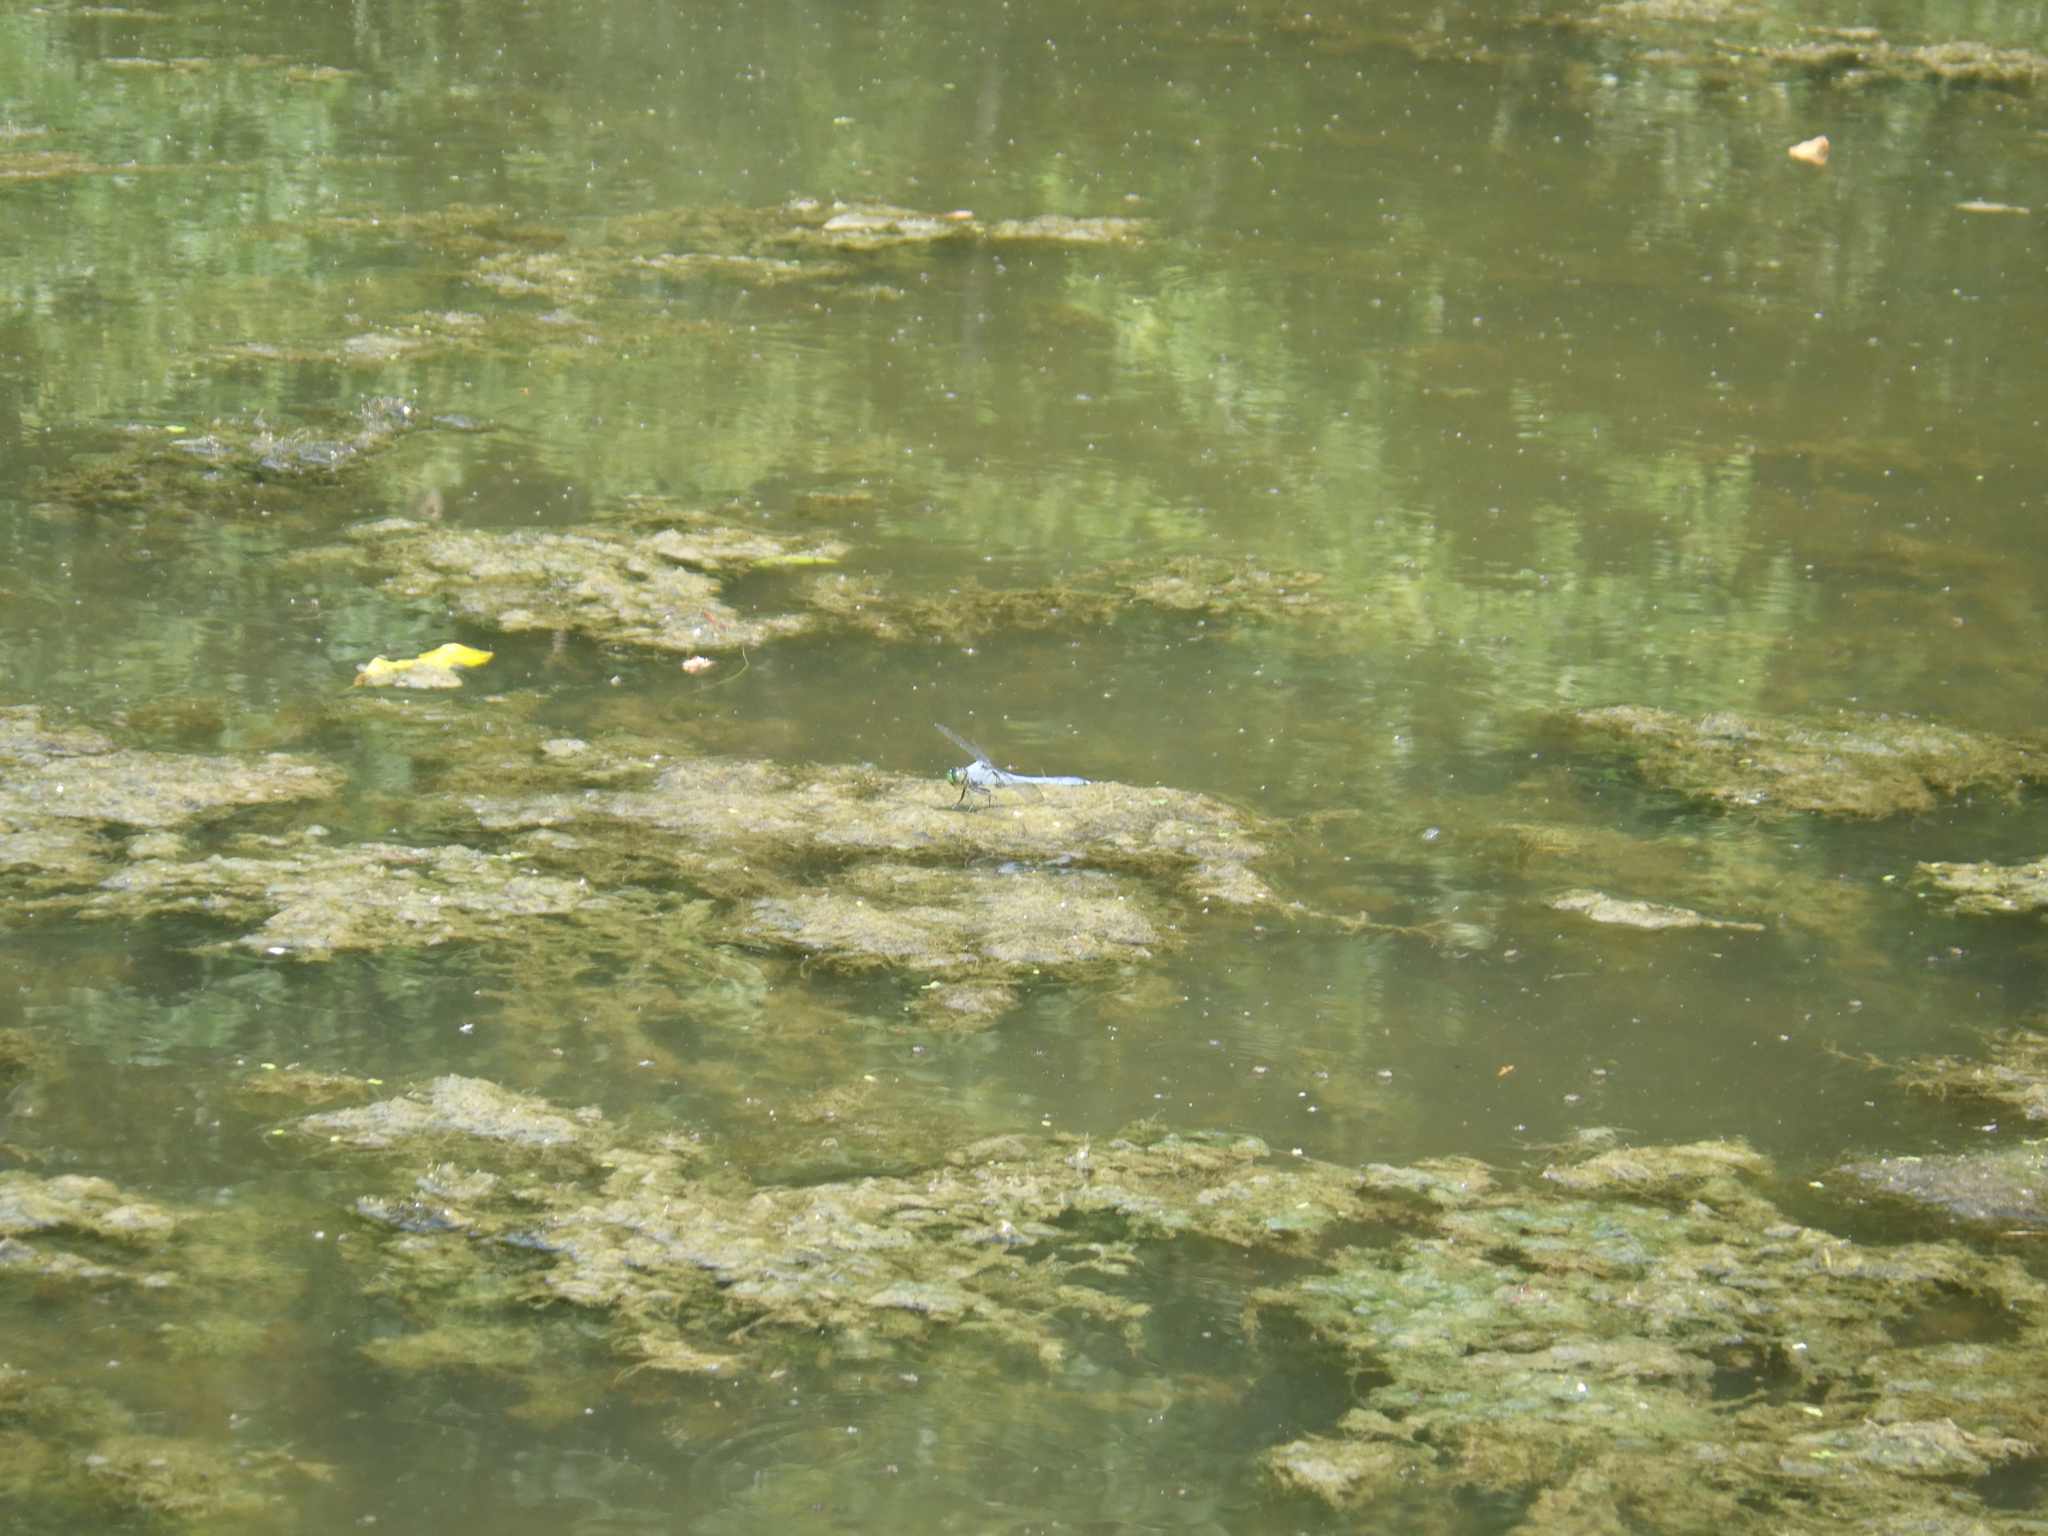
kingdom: Animalia
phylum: Arthropoda
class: Insecta
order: Odonata
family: Libellulidae
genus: Erythemis
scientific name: Erythemis simplicicollis
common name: Eastern pondhawk
